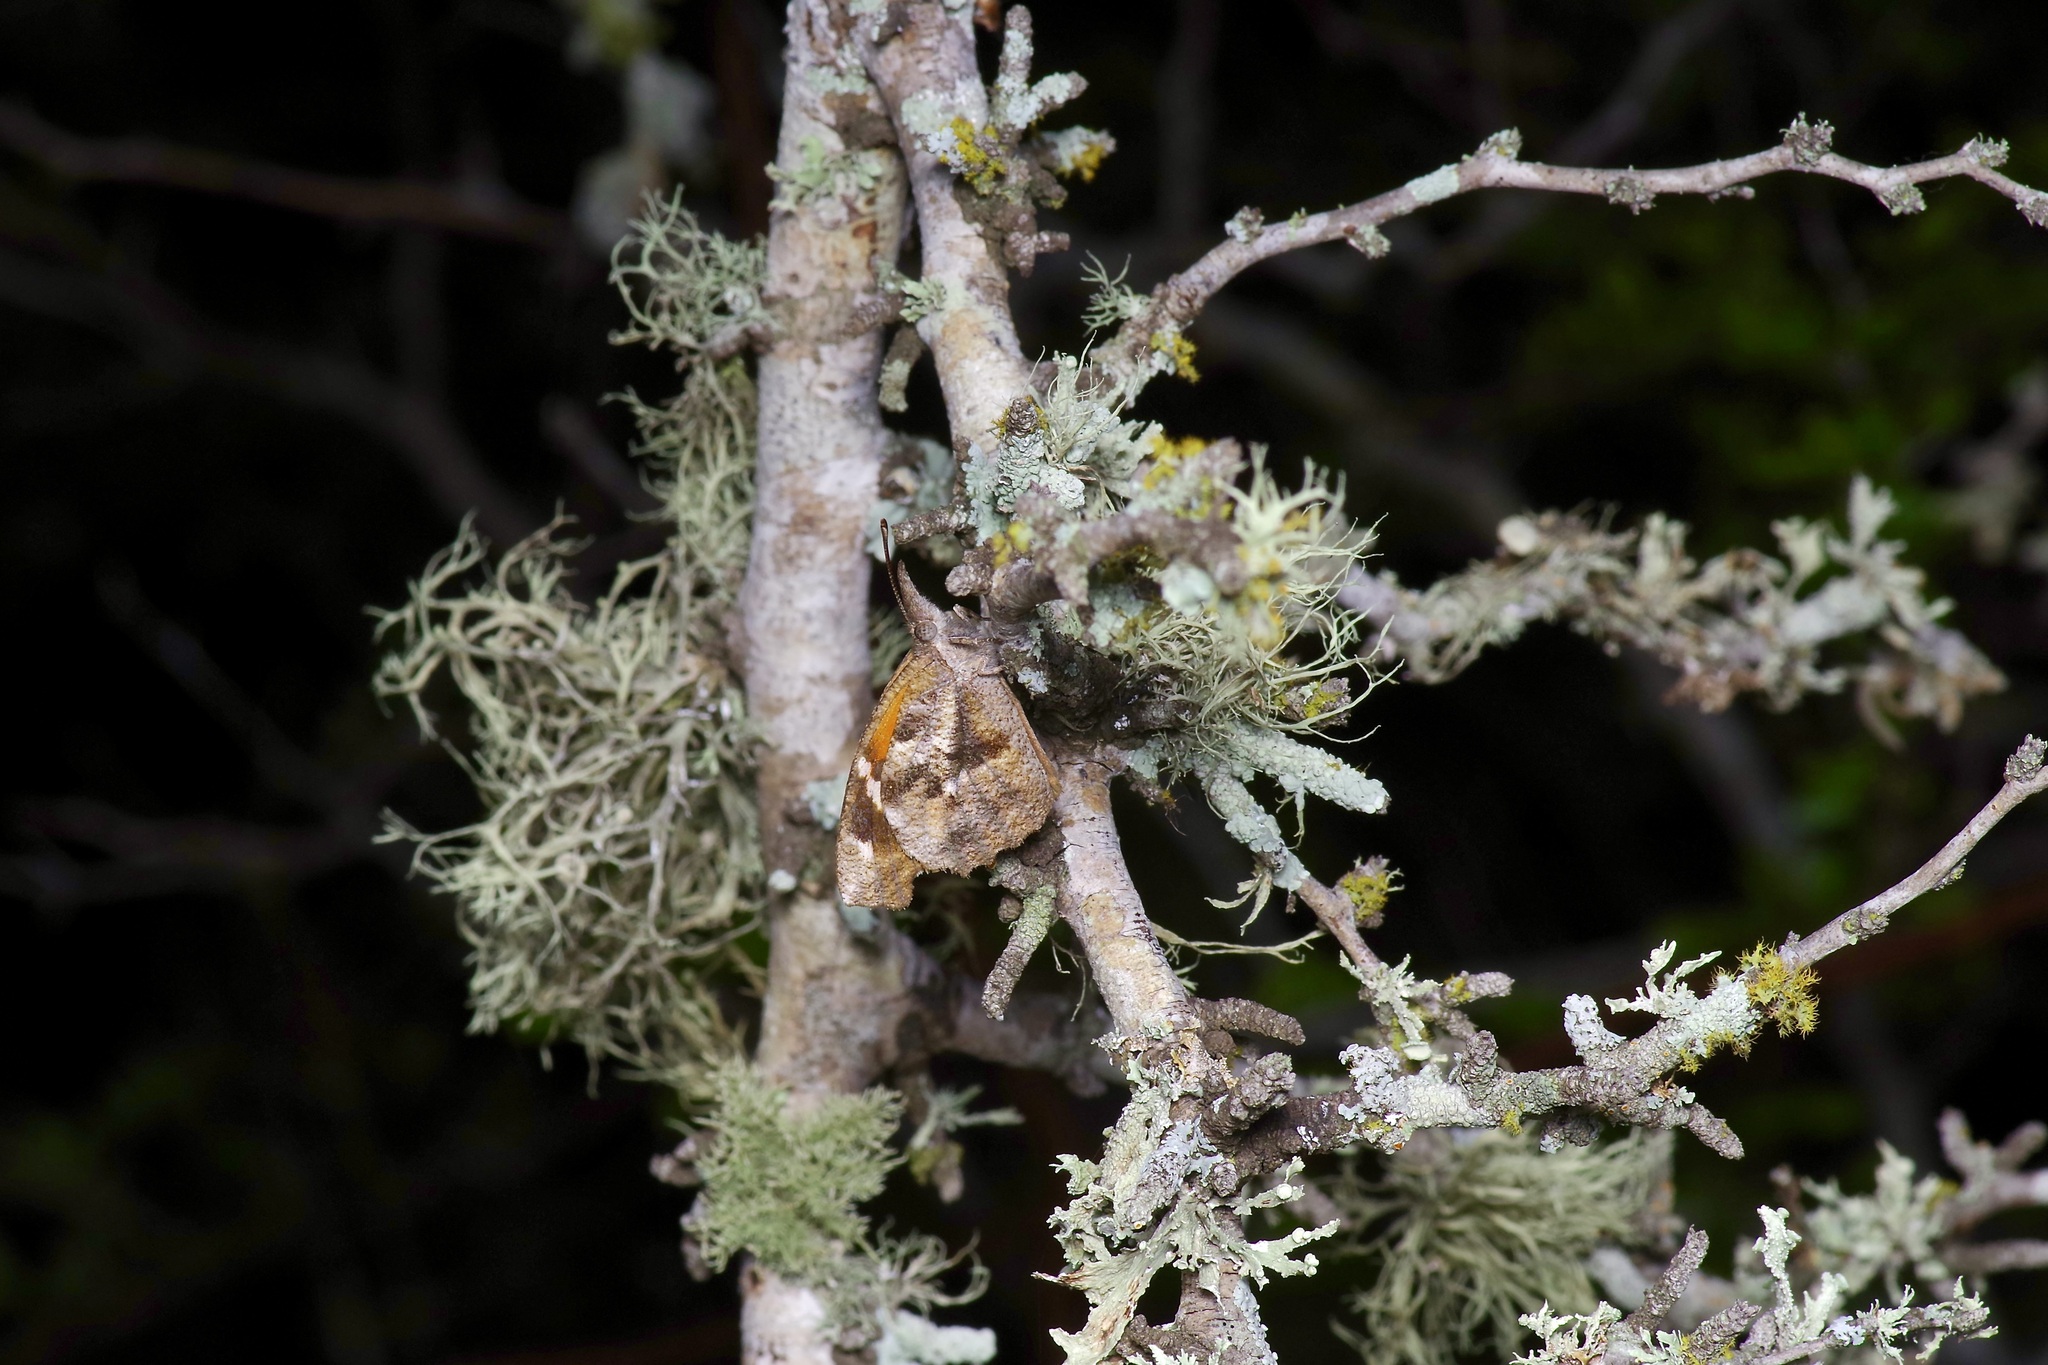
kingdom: Animalia
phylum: Arthropoda
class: Insecta
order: Lepidoptera
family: Nymphalidae
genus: Libytheana
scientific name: Libytheana carinenta
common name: American snout
